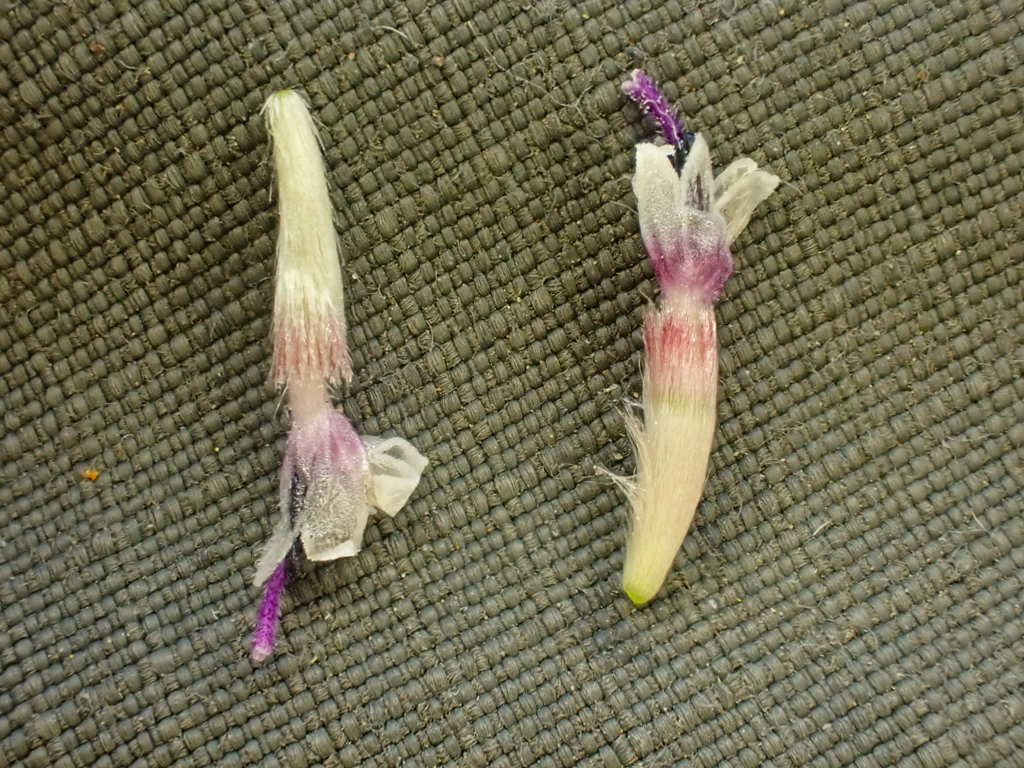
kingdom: Plantae
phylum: Tracheophyta
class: Magnoliopsida
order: Asterales
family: Asteraceae
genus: Blepharipappus
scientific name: Blepharipappus scaber
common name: Rough blepharipappus
